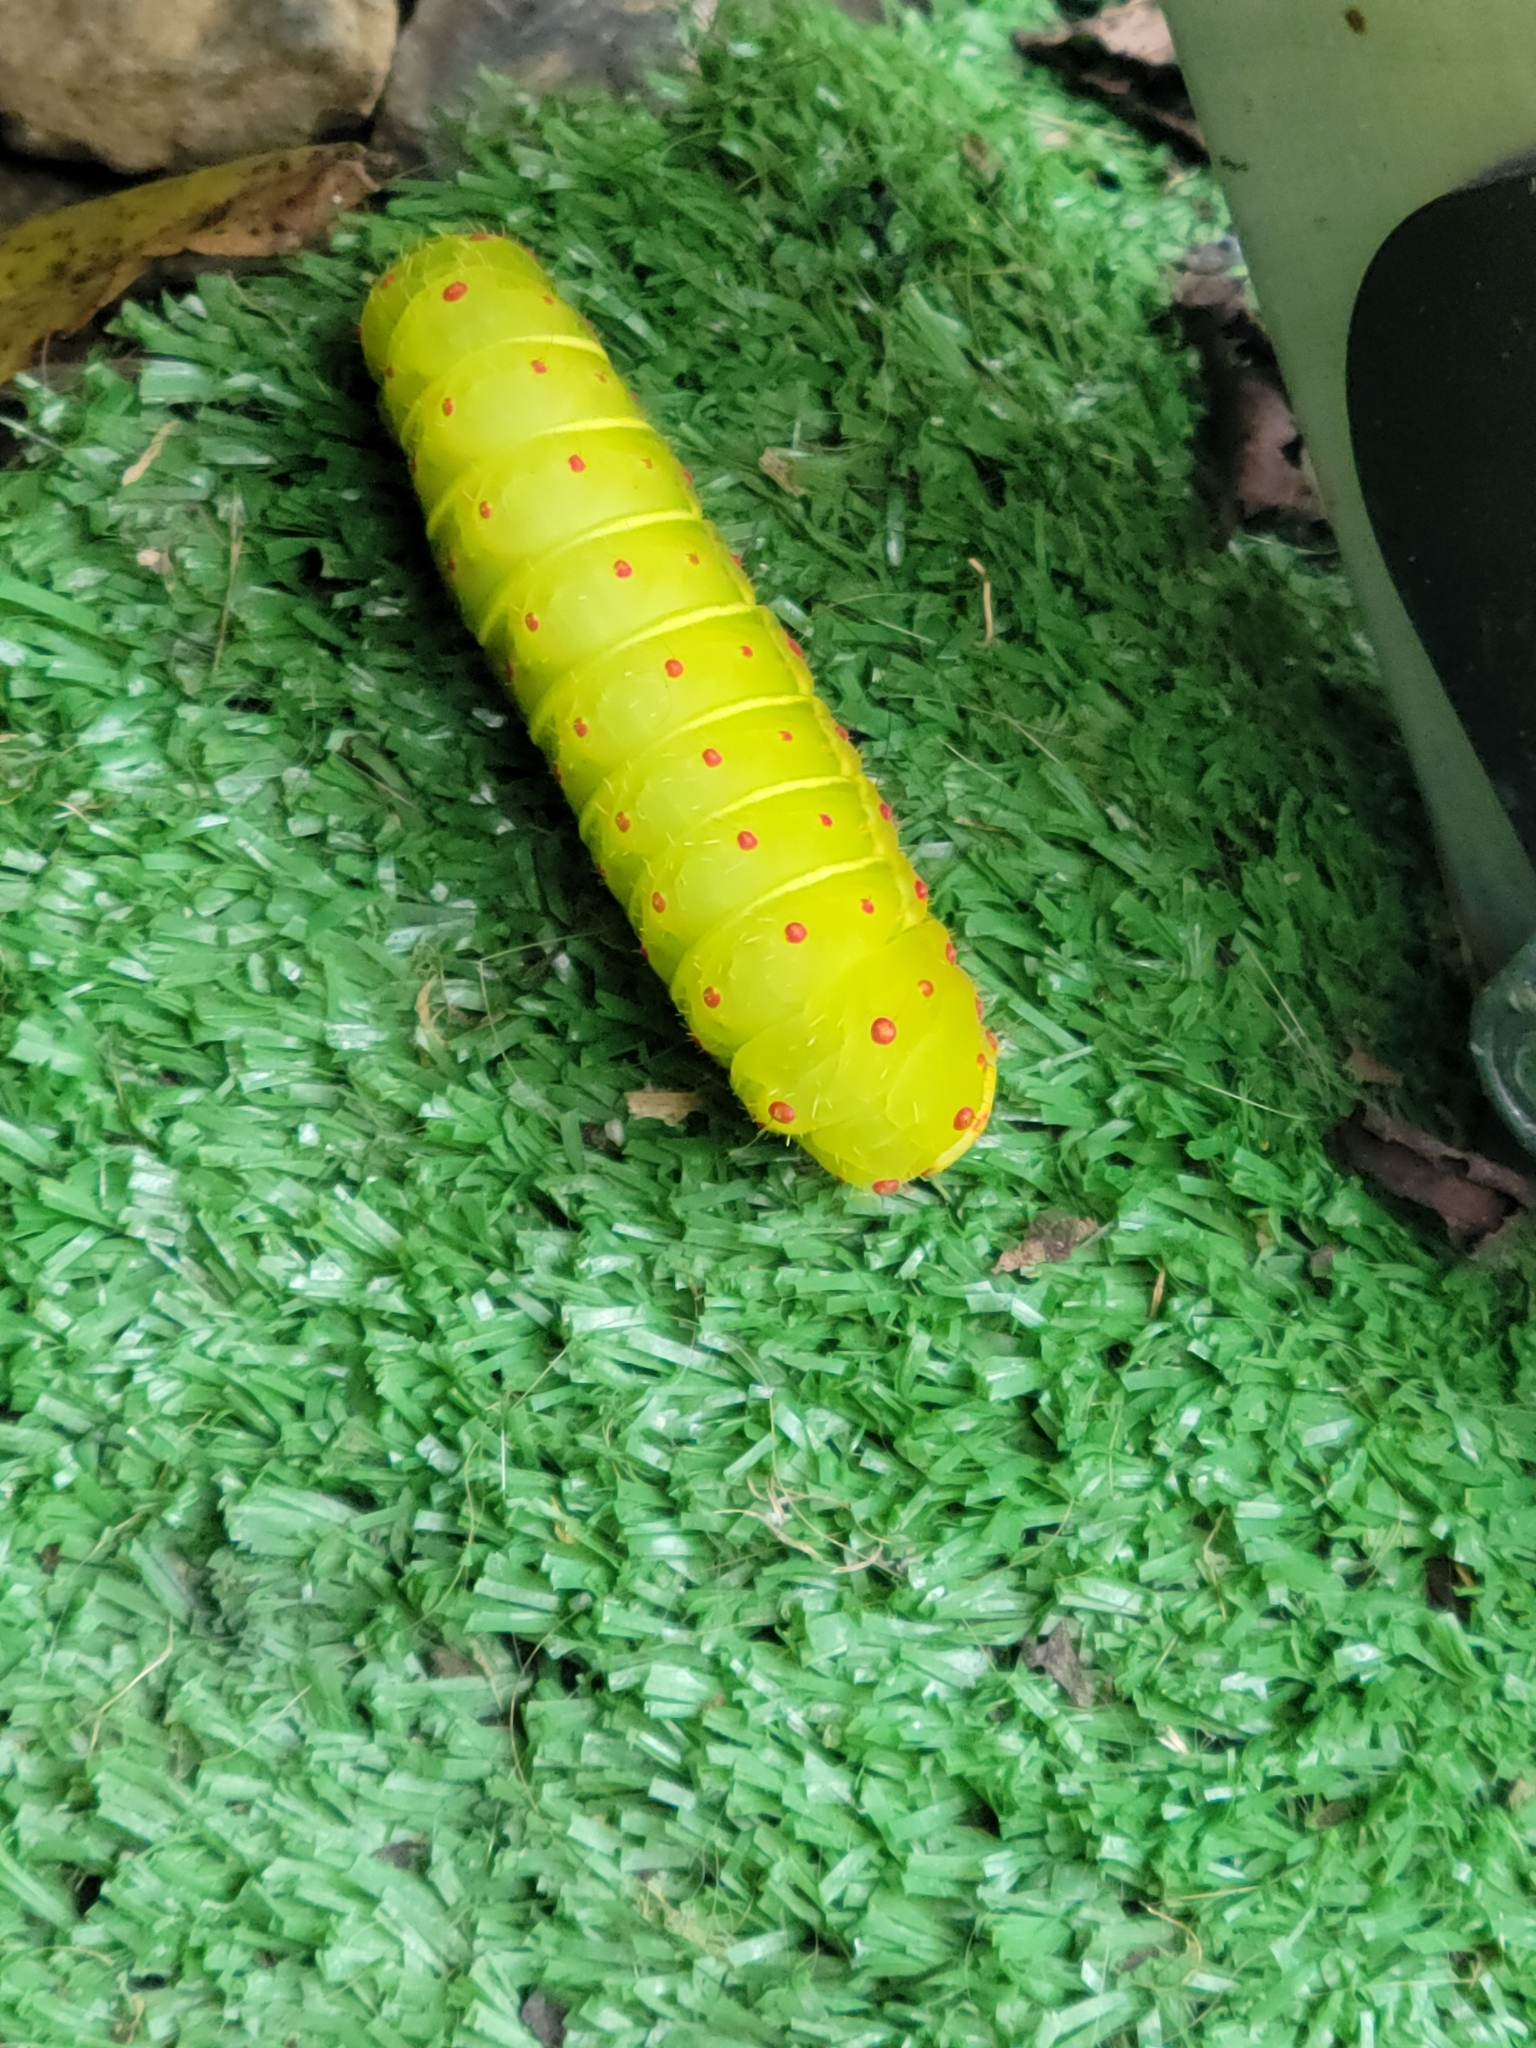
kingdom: Animalia
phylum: Arthropoda
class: Insecta
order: Lepidoptera
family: Saturniidae
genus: Actias
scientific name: Actias luna
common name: Luna moth
